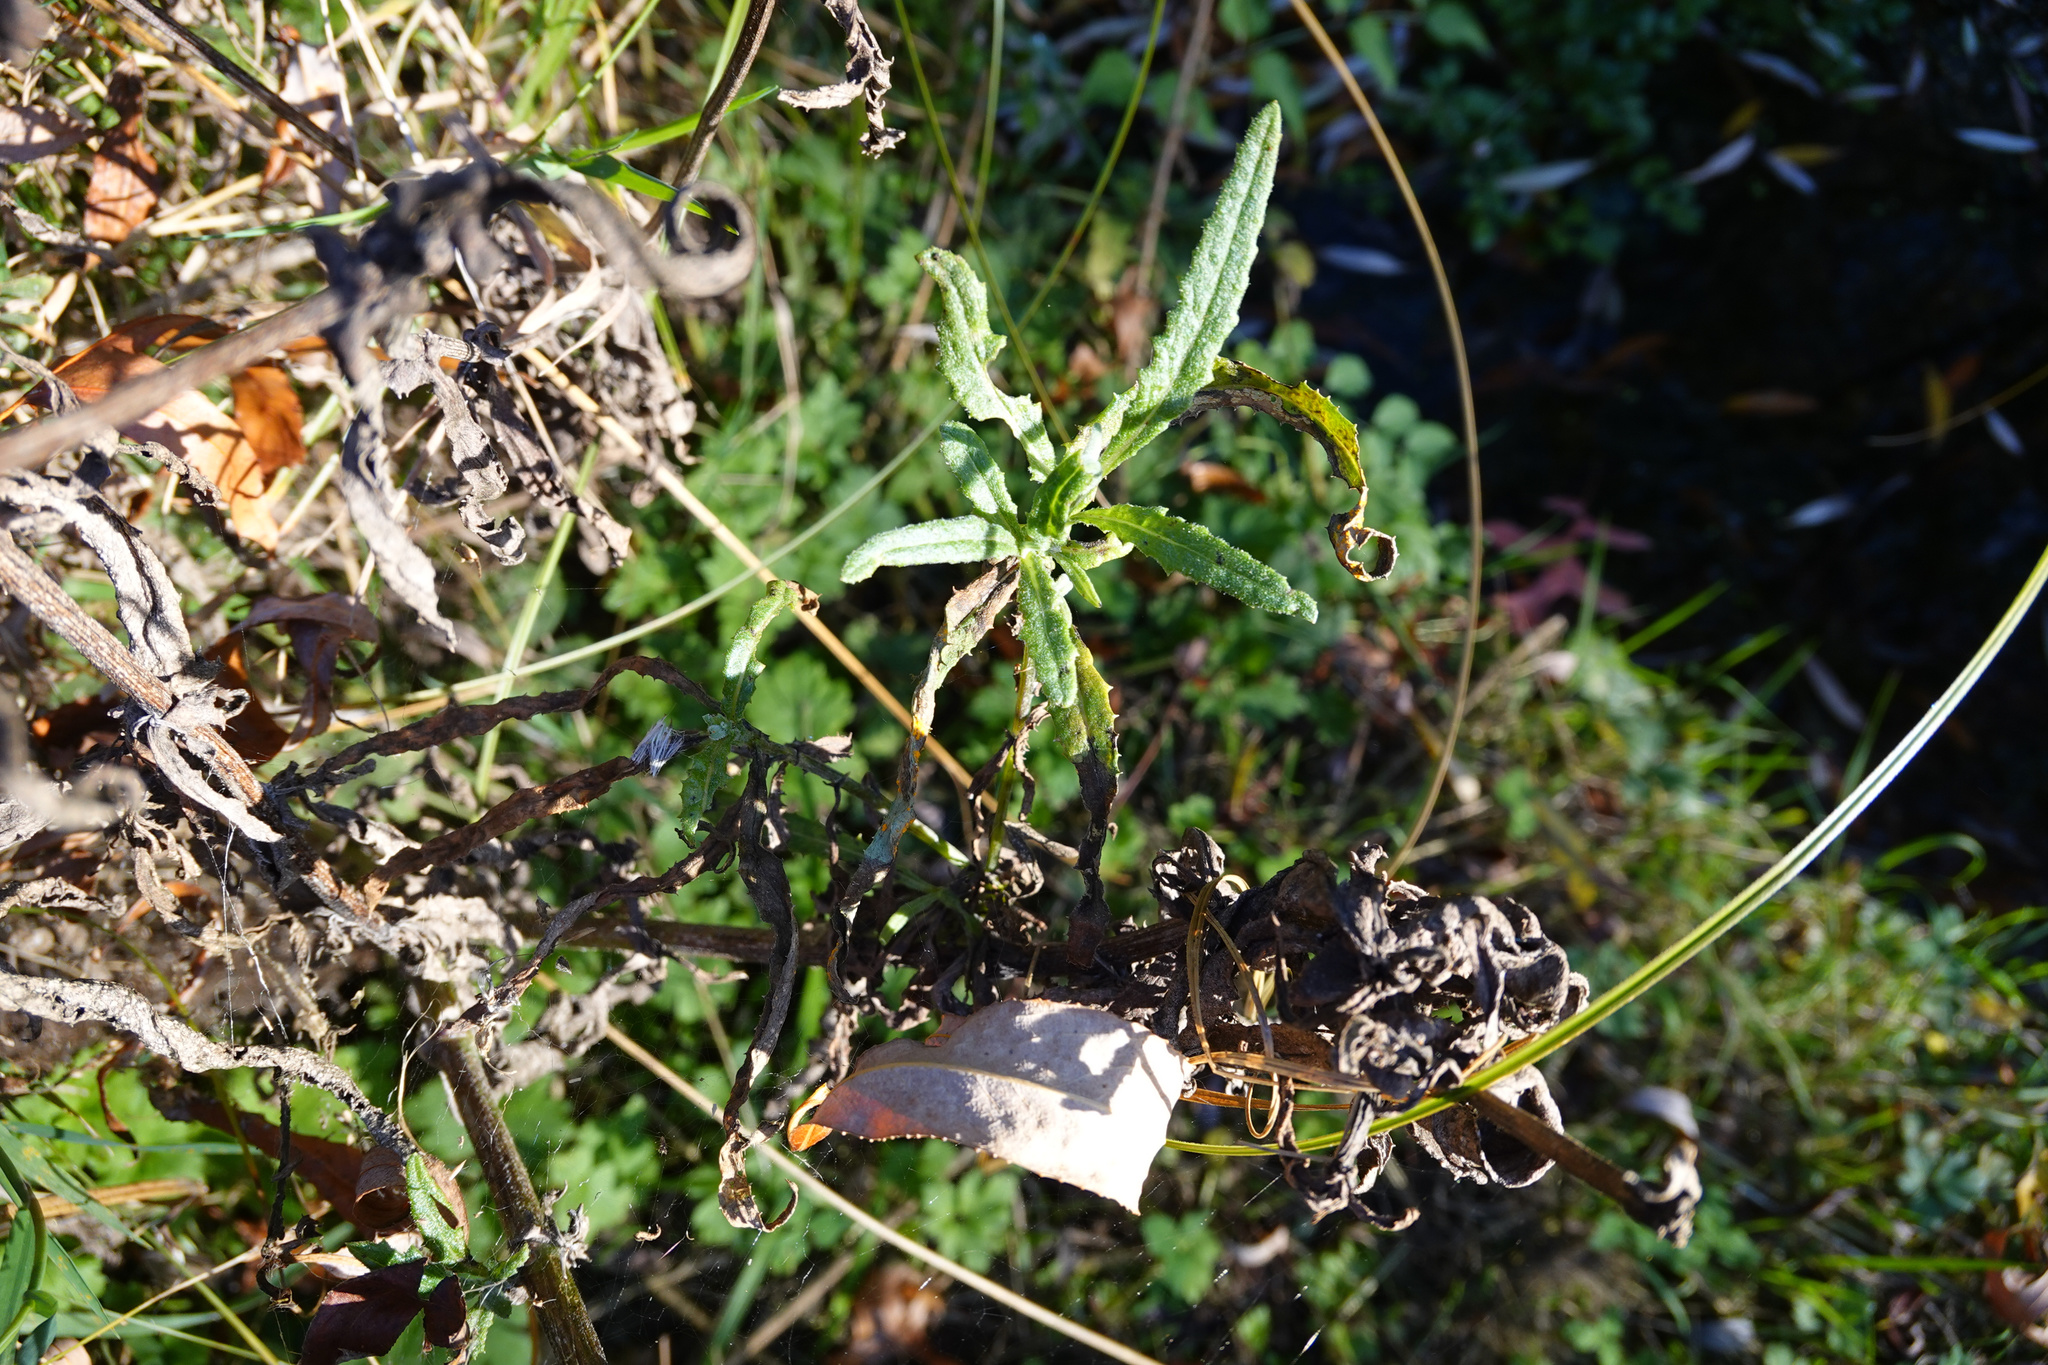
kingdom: Plantae
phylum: Tracheophyta
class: Magnoliopsida
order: Asterales
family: Asteraceae
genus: Senecio
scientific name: Senecio minimus
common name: Toothed fireweed
